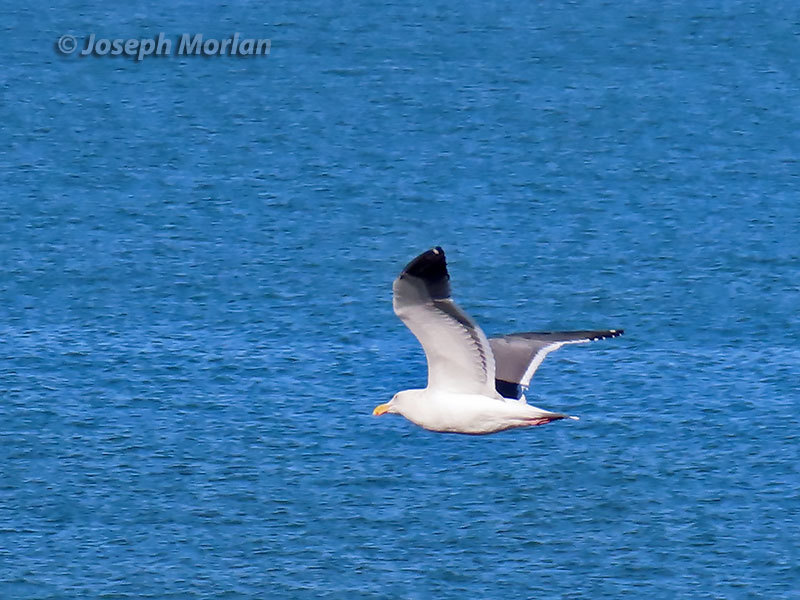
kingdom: Animalia
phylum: Chordata
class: Aves
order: Charadriiformes
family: Laridae
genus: Larus
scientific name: Larus occidentalis
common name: Western gull
